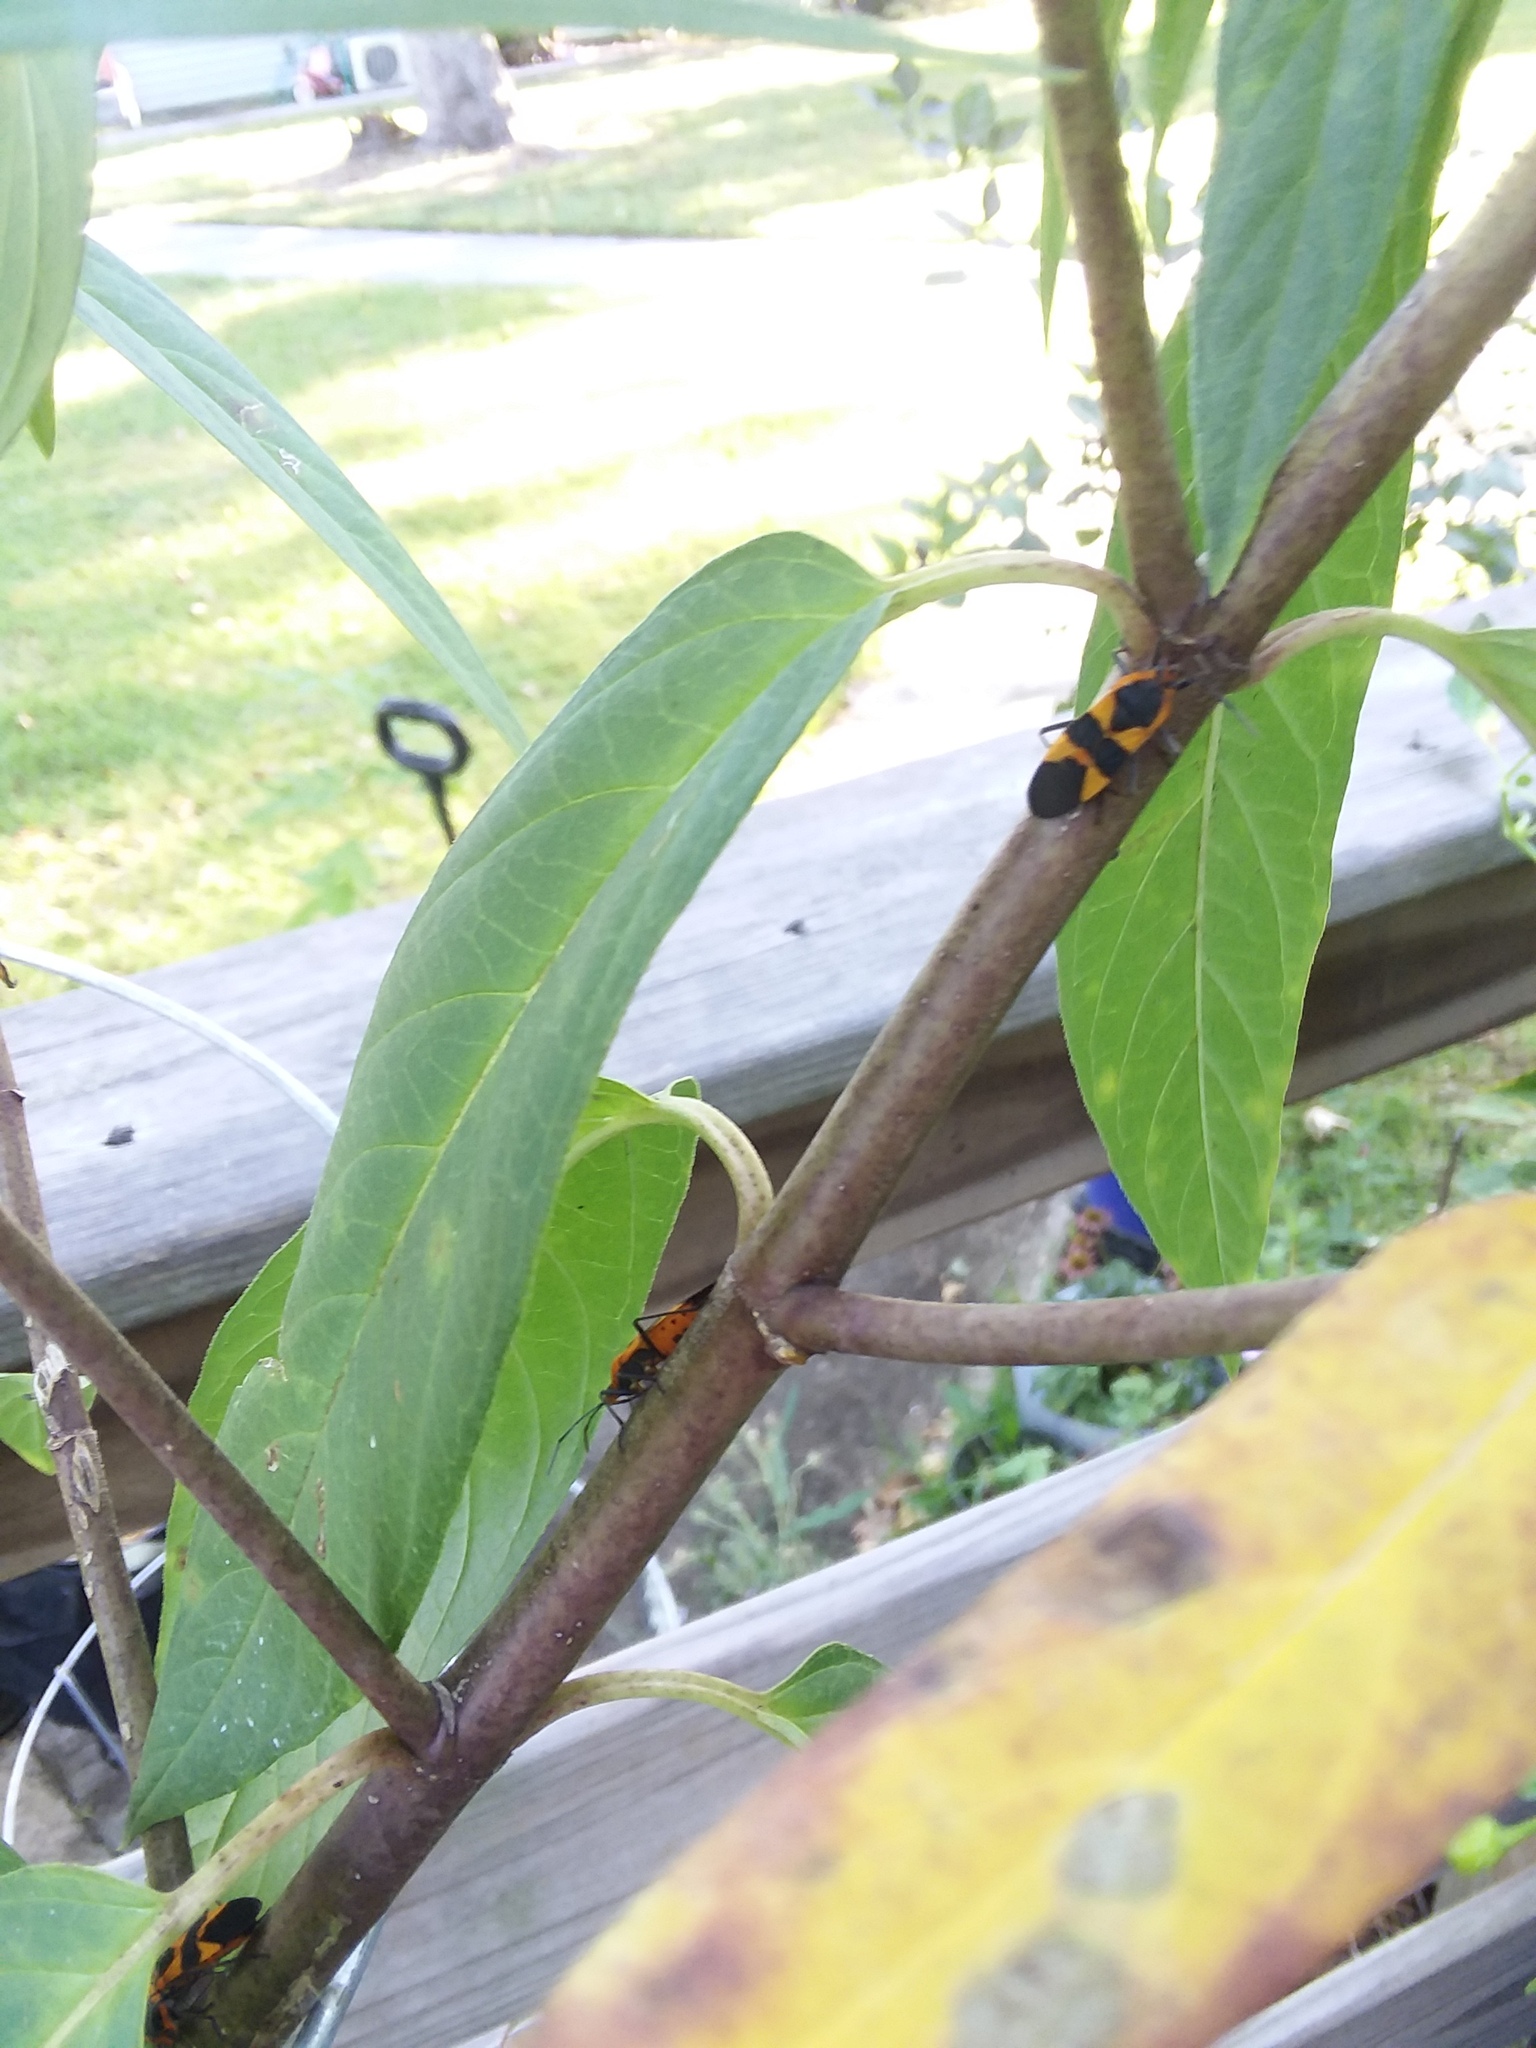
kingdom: Animalia
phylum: Arthropoda
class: Insecta
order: Hemiptera
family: Lygaeidae
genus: Oncopeltus
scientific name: Oncopeltus fasciatus
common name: Large milkweed bug
